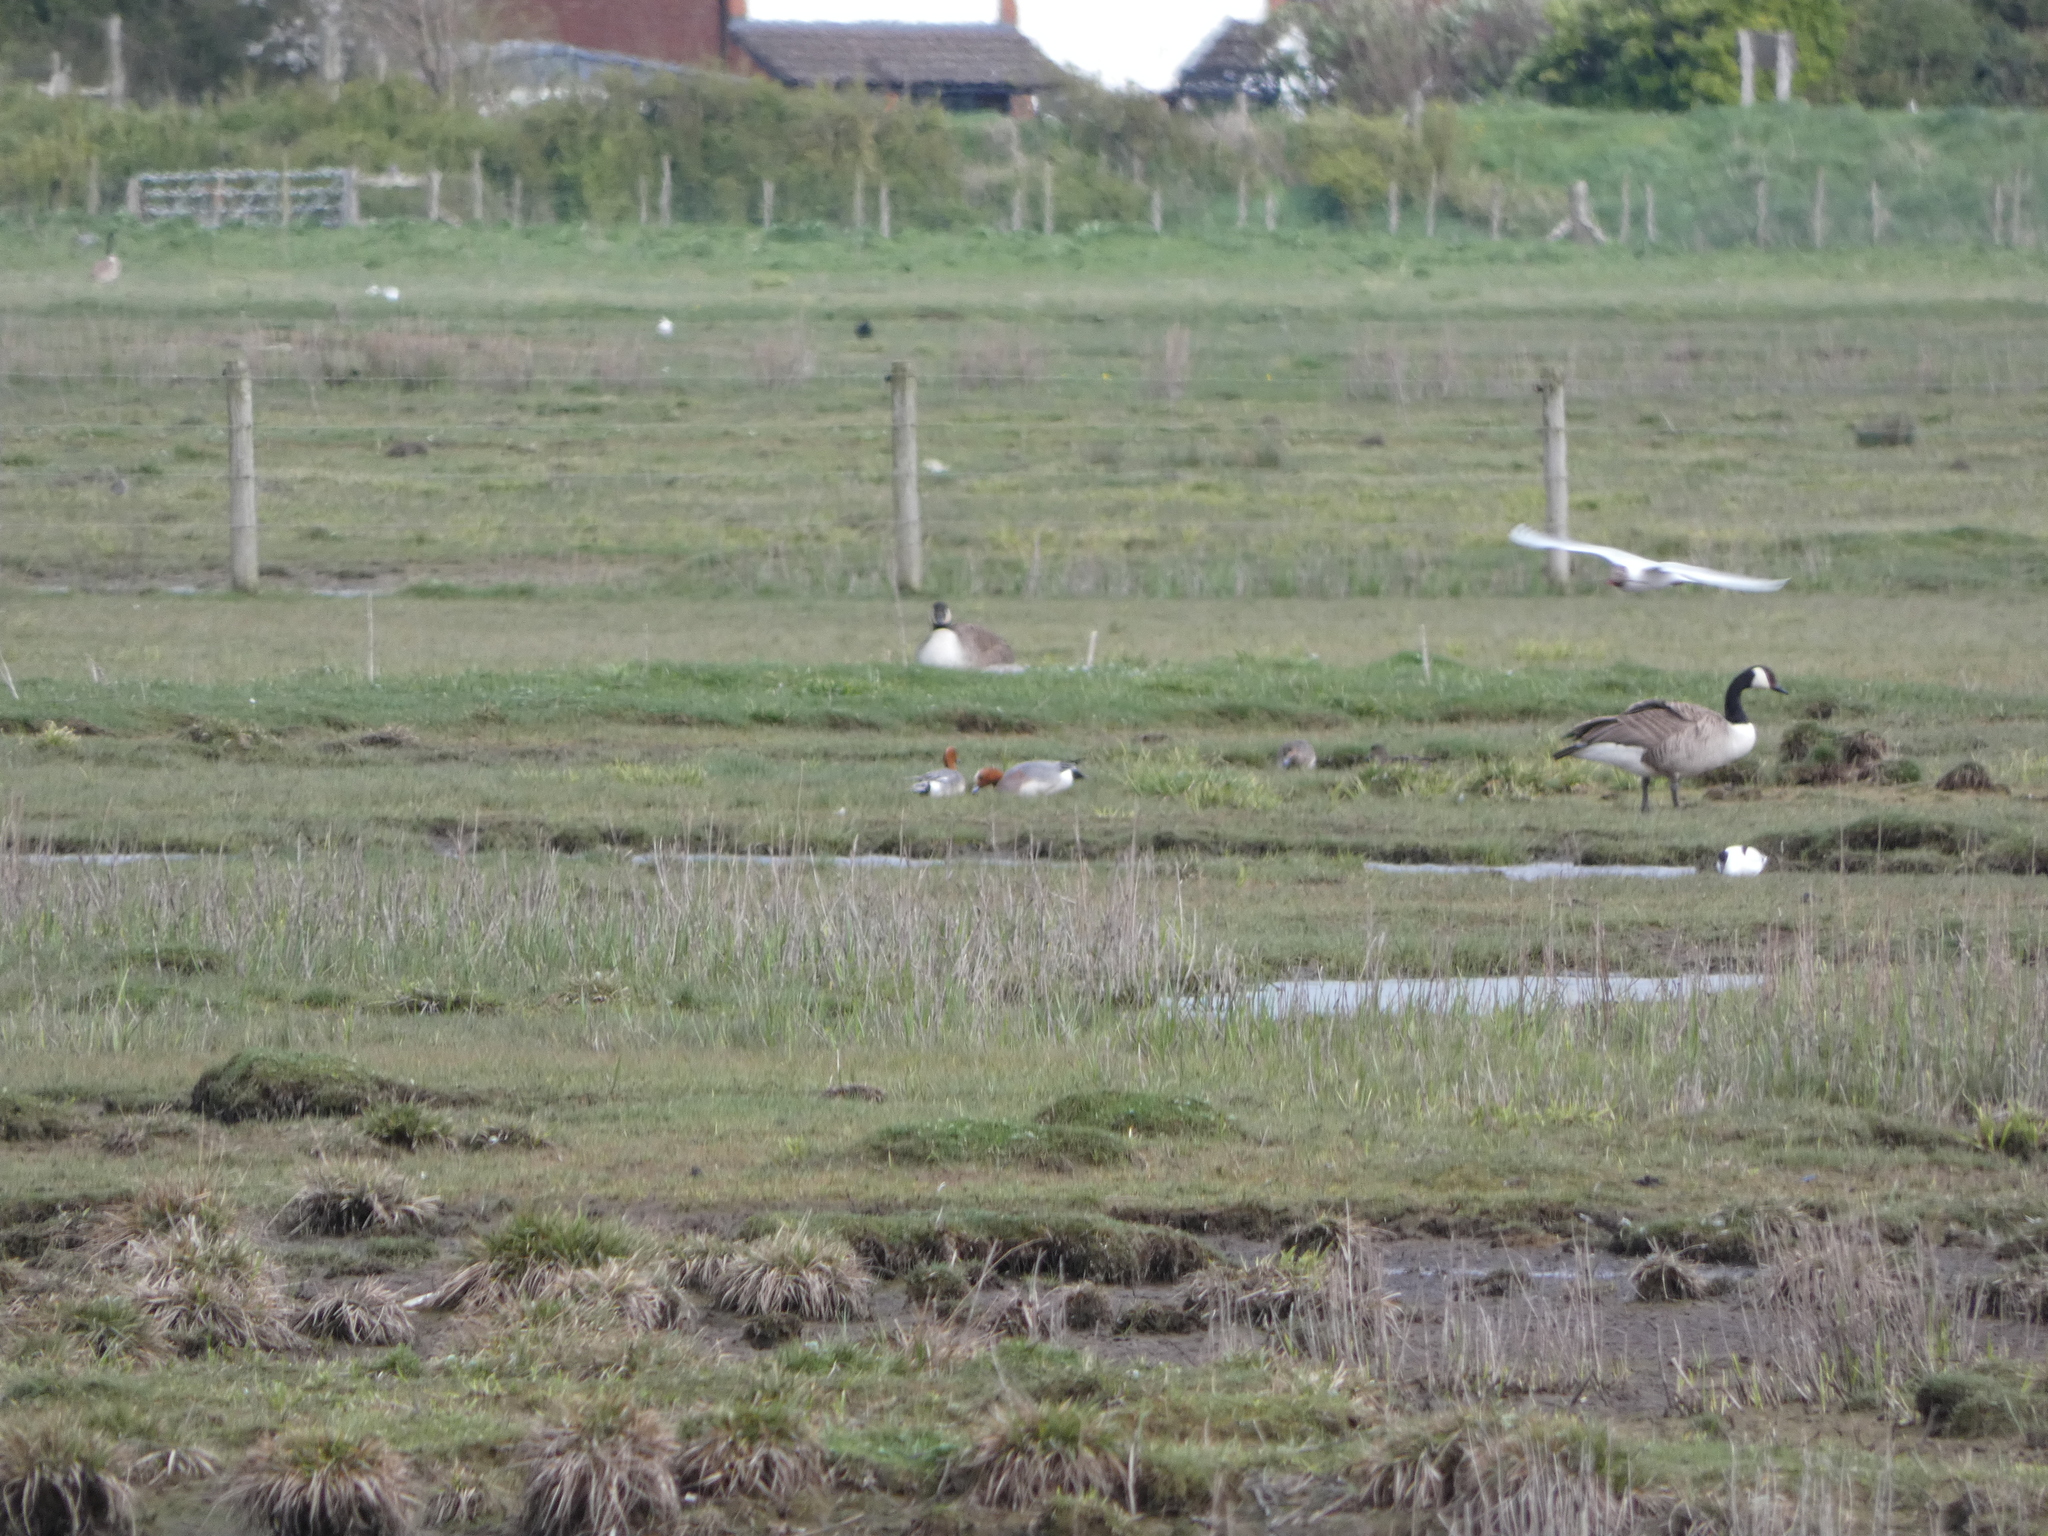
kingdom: Animalia
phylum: Chordata
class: Aves
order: Anseriformes
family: Anatidae
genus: Mareca
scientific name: Mareca penelope
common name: Eurasian wigeon
